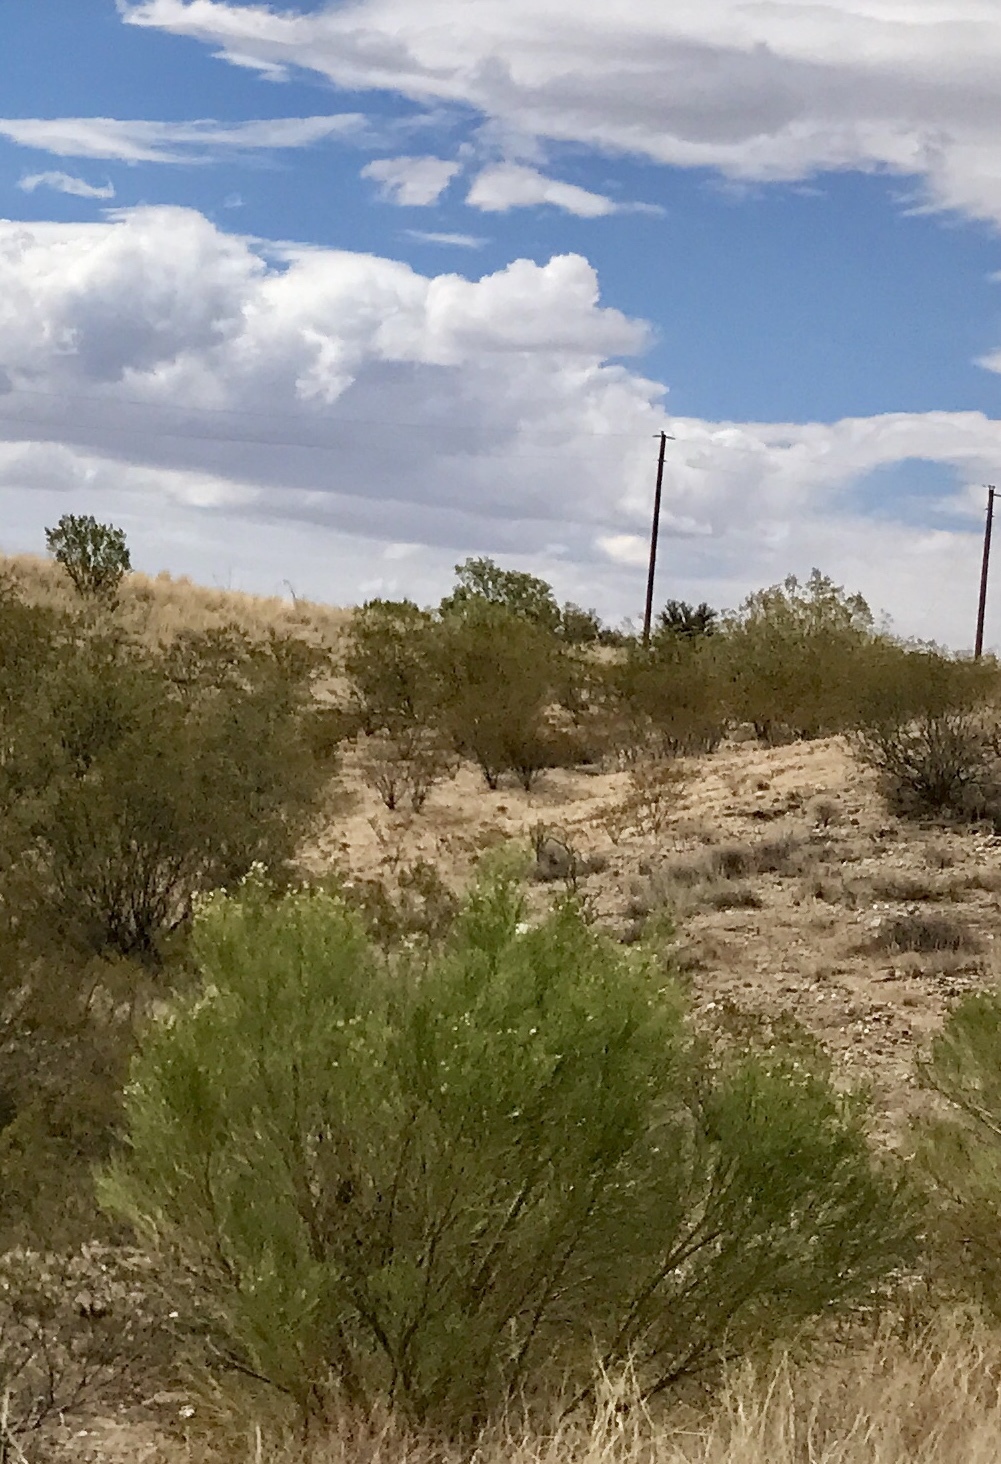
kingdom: Plantae
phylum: Tracheophyta
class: Magnoliopsida
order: Asterales
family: Asteraceae
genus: Baccharis
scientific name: Baccharis sarothroides
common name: Desert-broom
